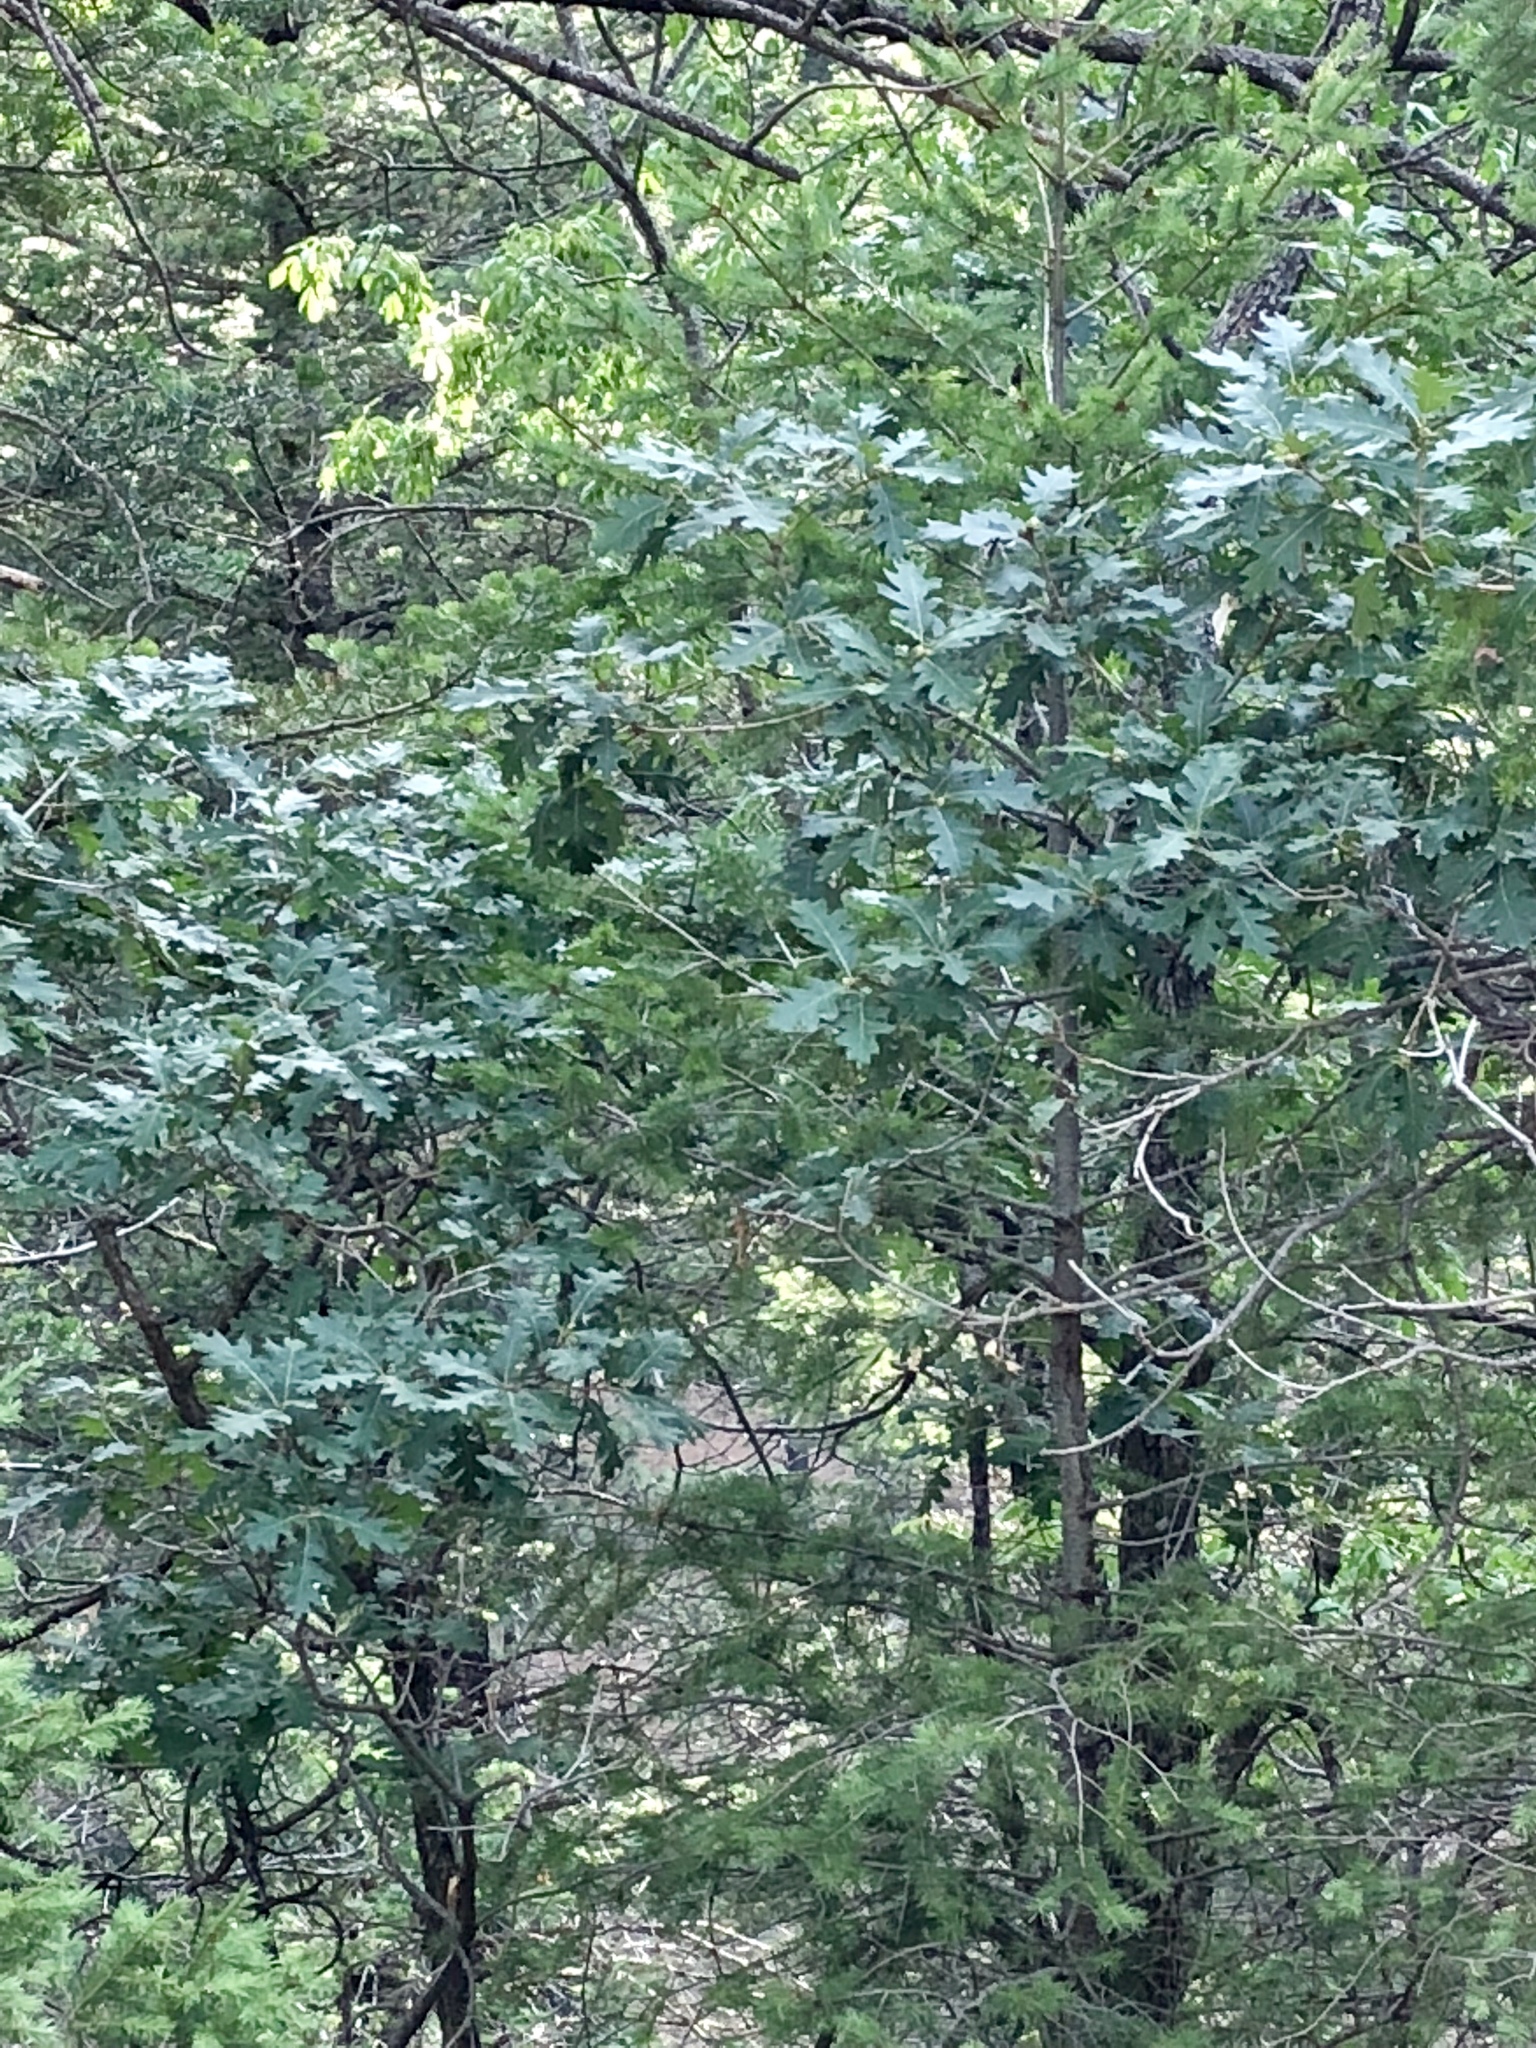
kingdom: Plantae
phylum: Tracheophyta
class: Magnoliopsida
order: Fagales
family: Fagaceae
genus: Quercus
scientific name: Quercus gambelii
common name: Gambel oak
